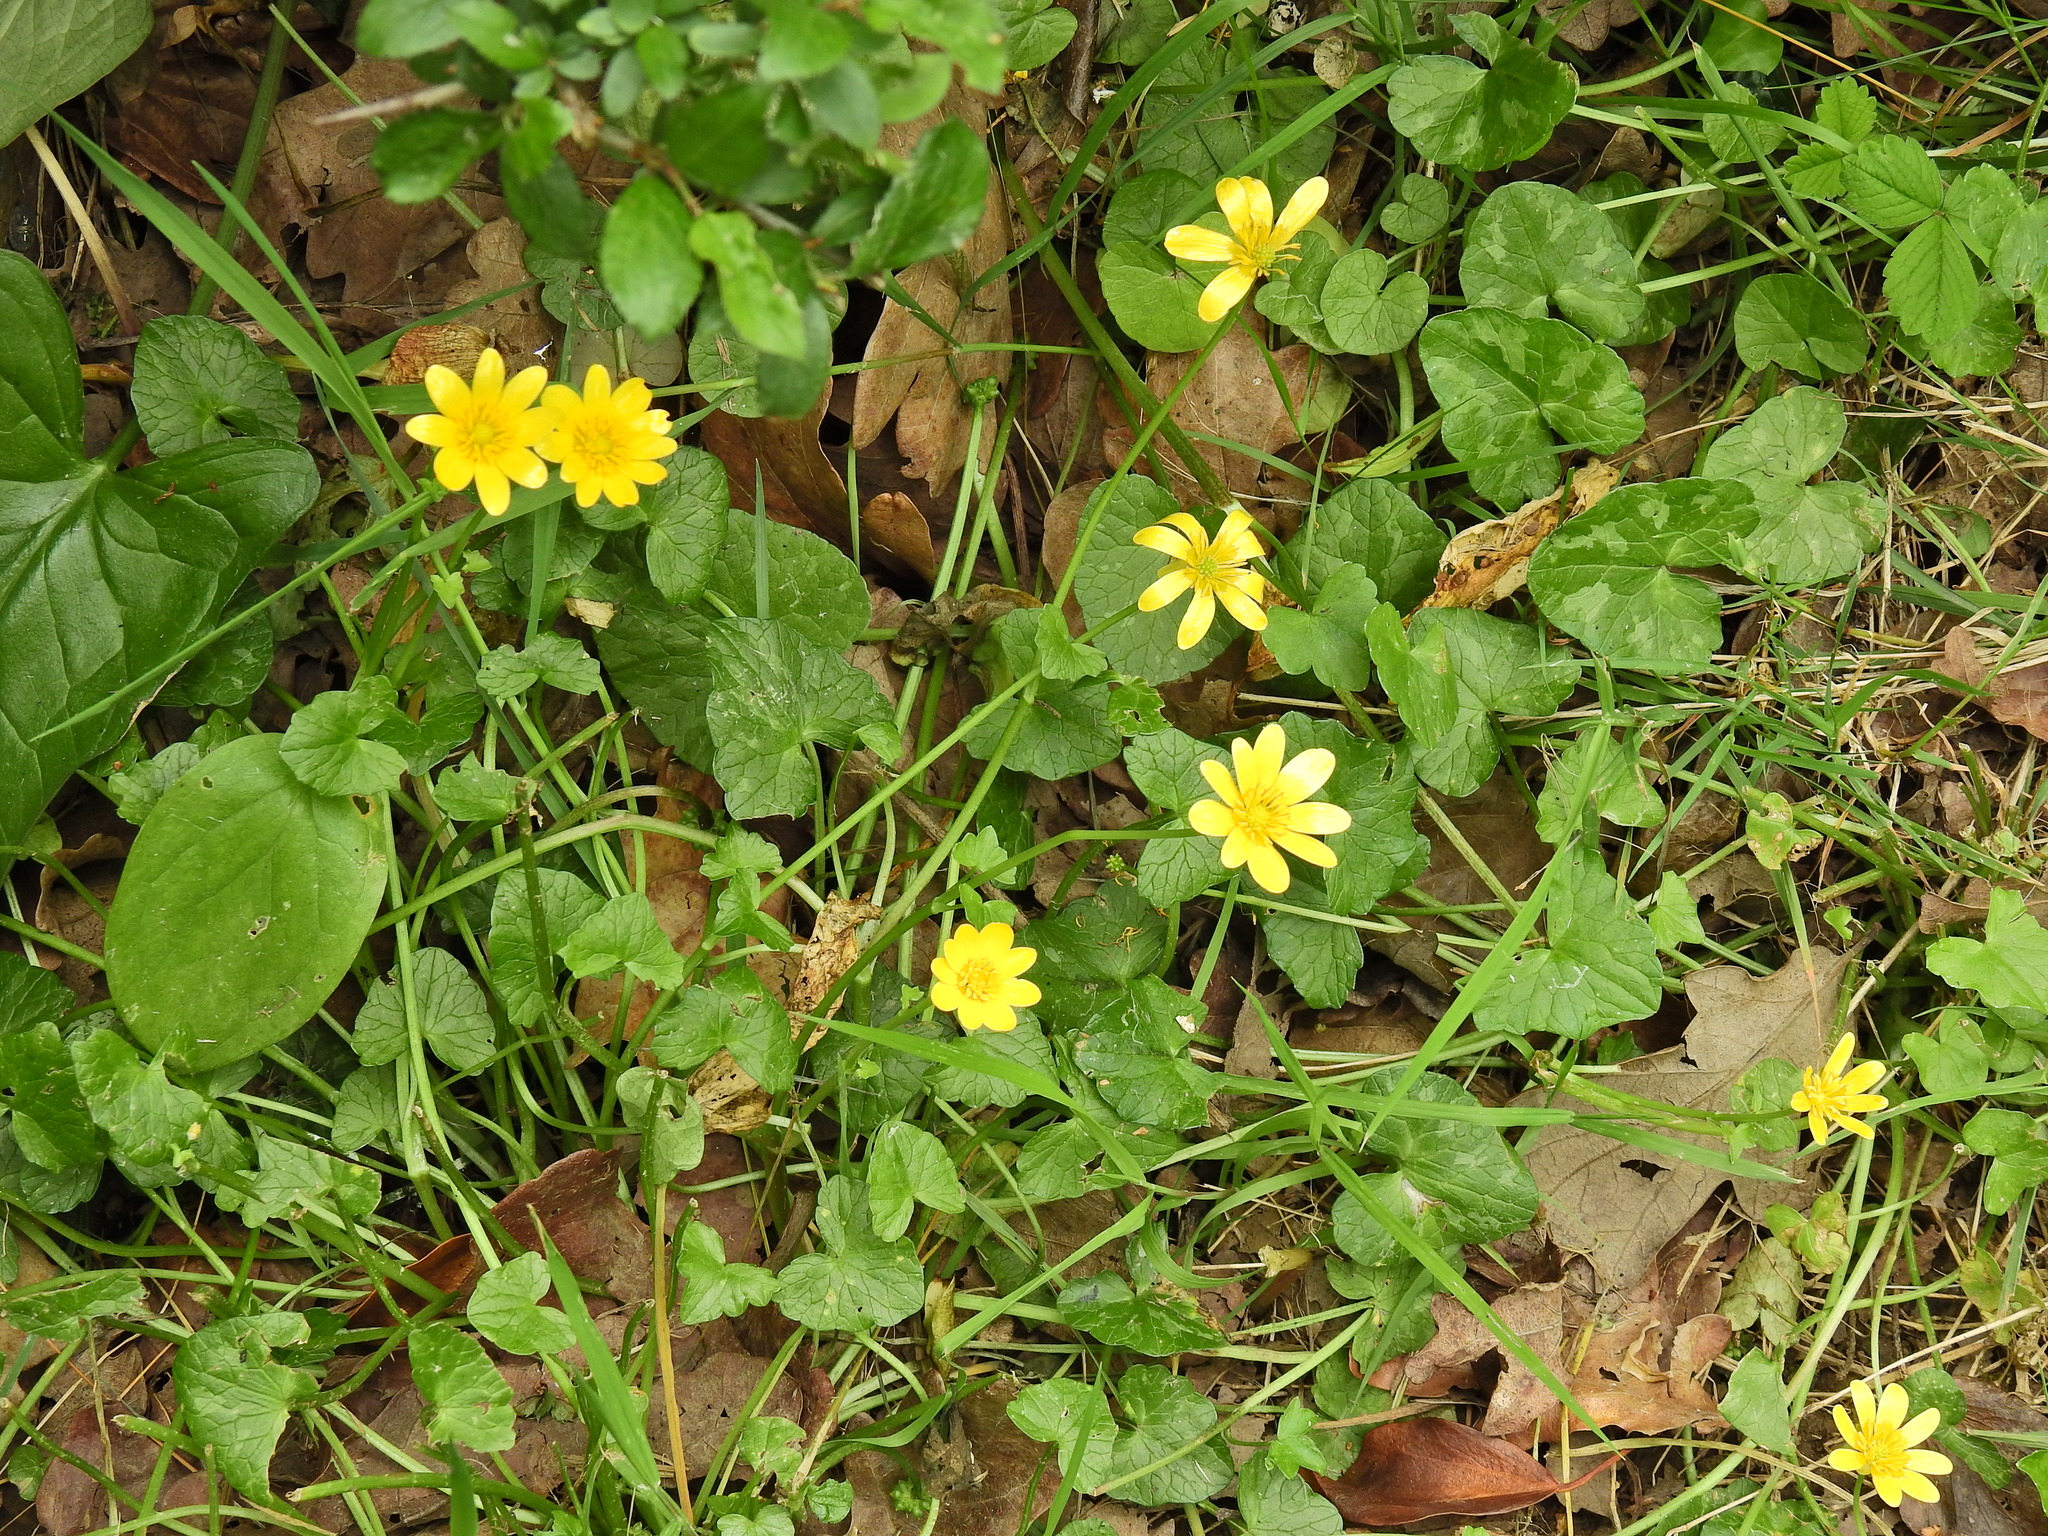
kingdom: Plantae
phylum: Tracheophyta
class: Magnoliopsida
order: Ranunculales
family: Ranunculaceae
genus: Ficaria
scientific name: Ficaria verna
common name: Lesser celandine
